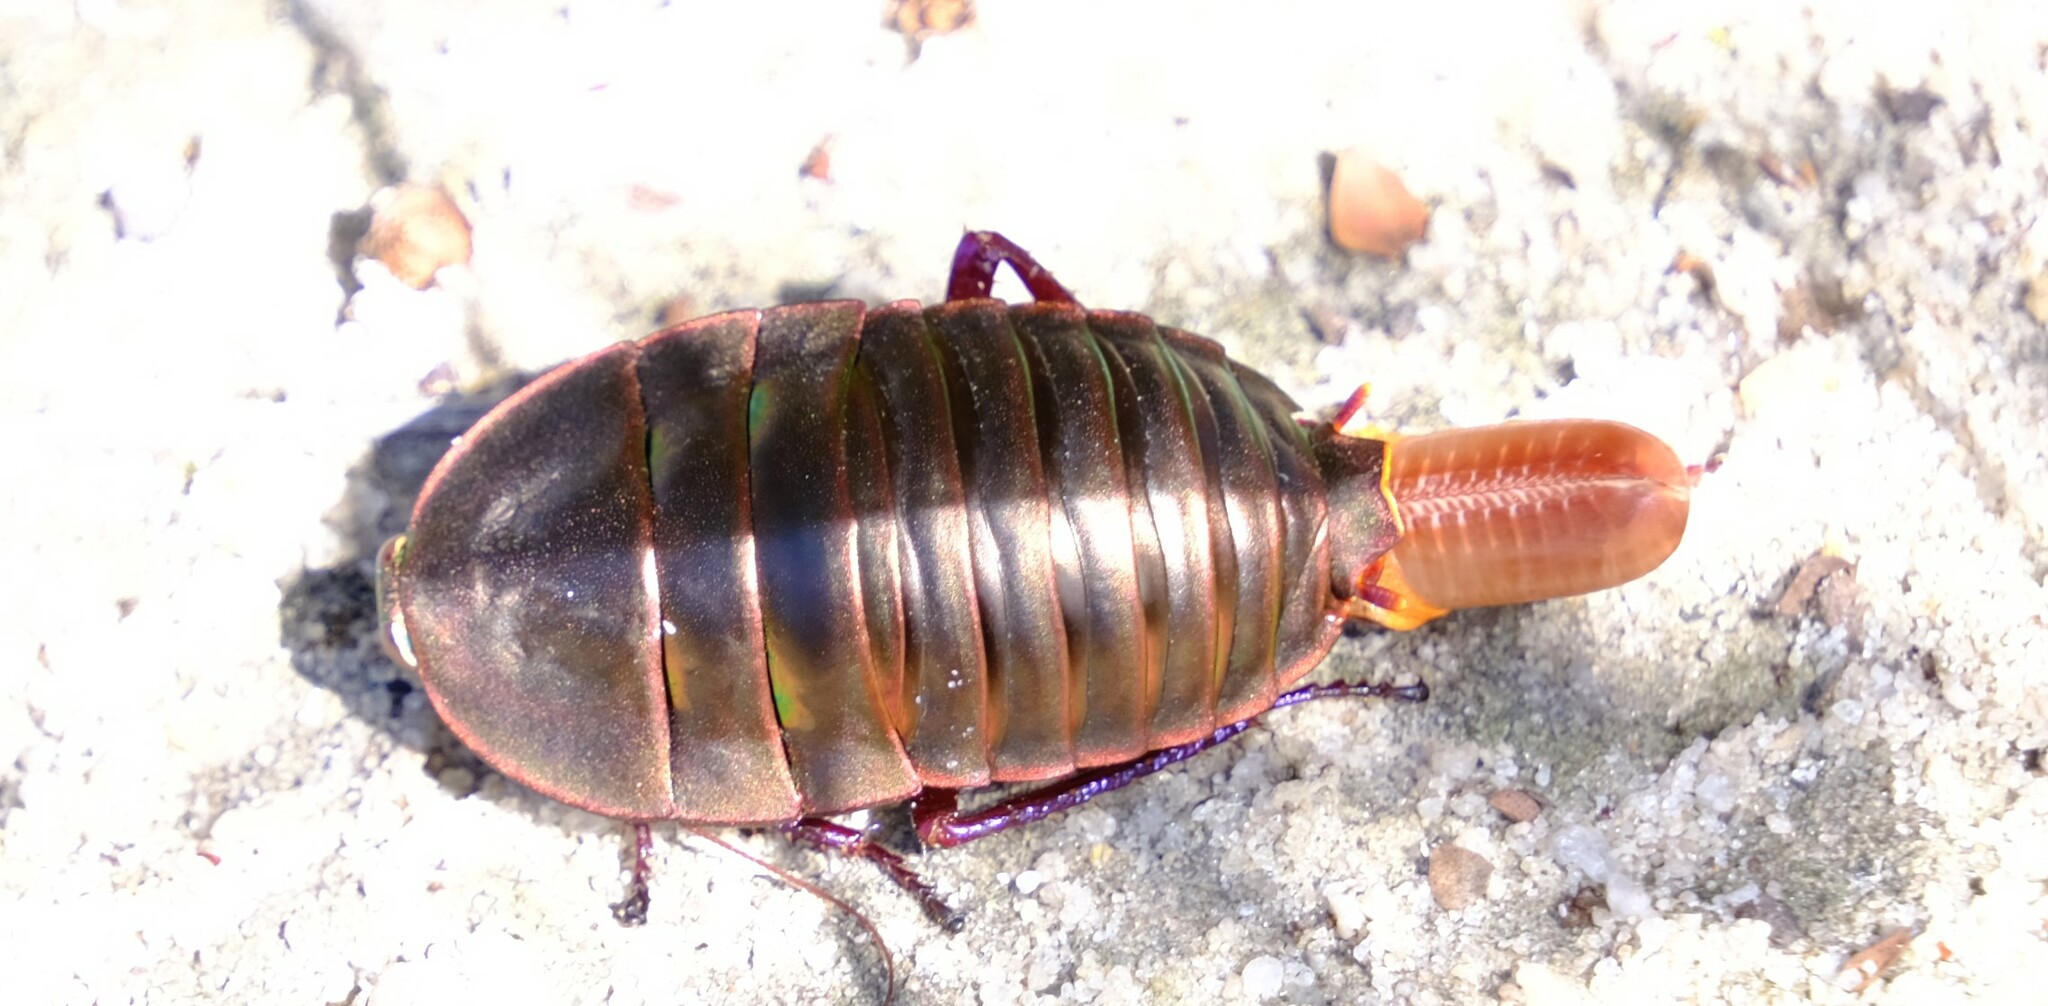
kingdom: Animalia
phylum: Arthropoda
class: Insecta
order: Blattodea
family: Blattidae
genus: Polyzosteria
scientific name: Polyzosteria fulgens
